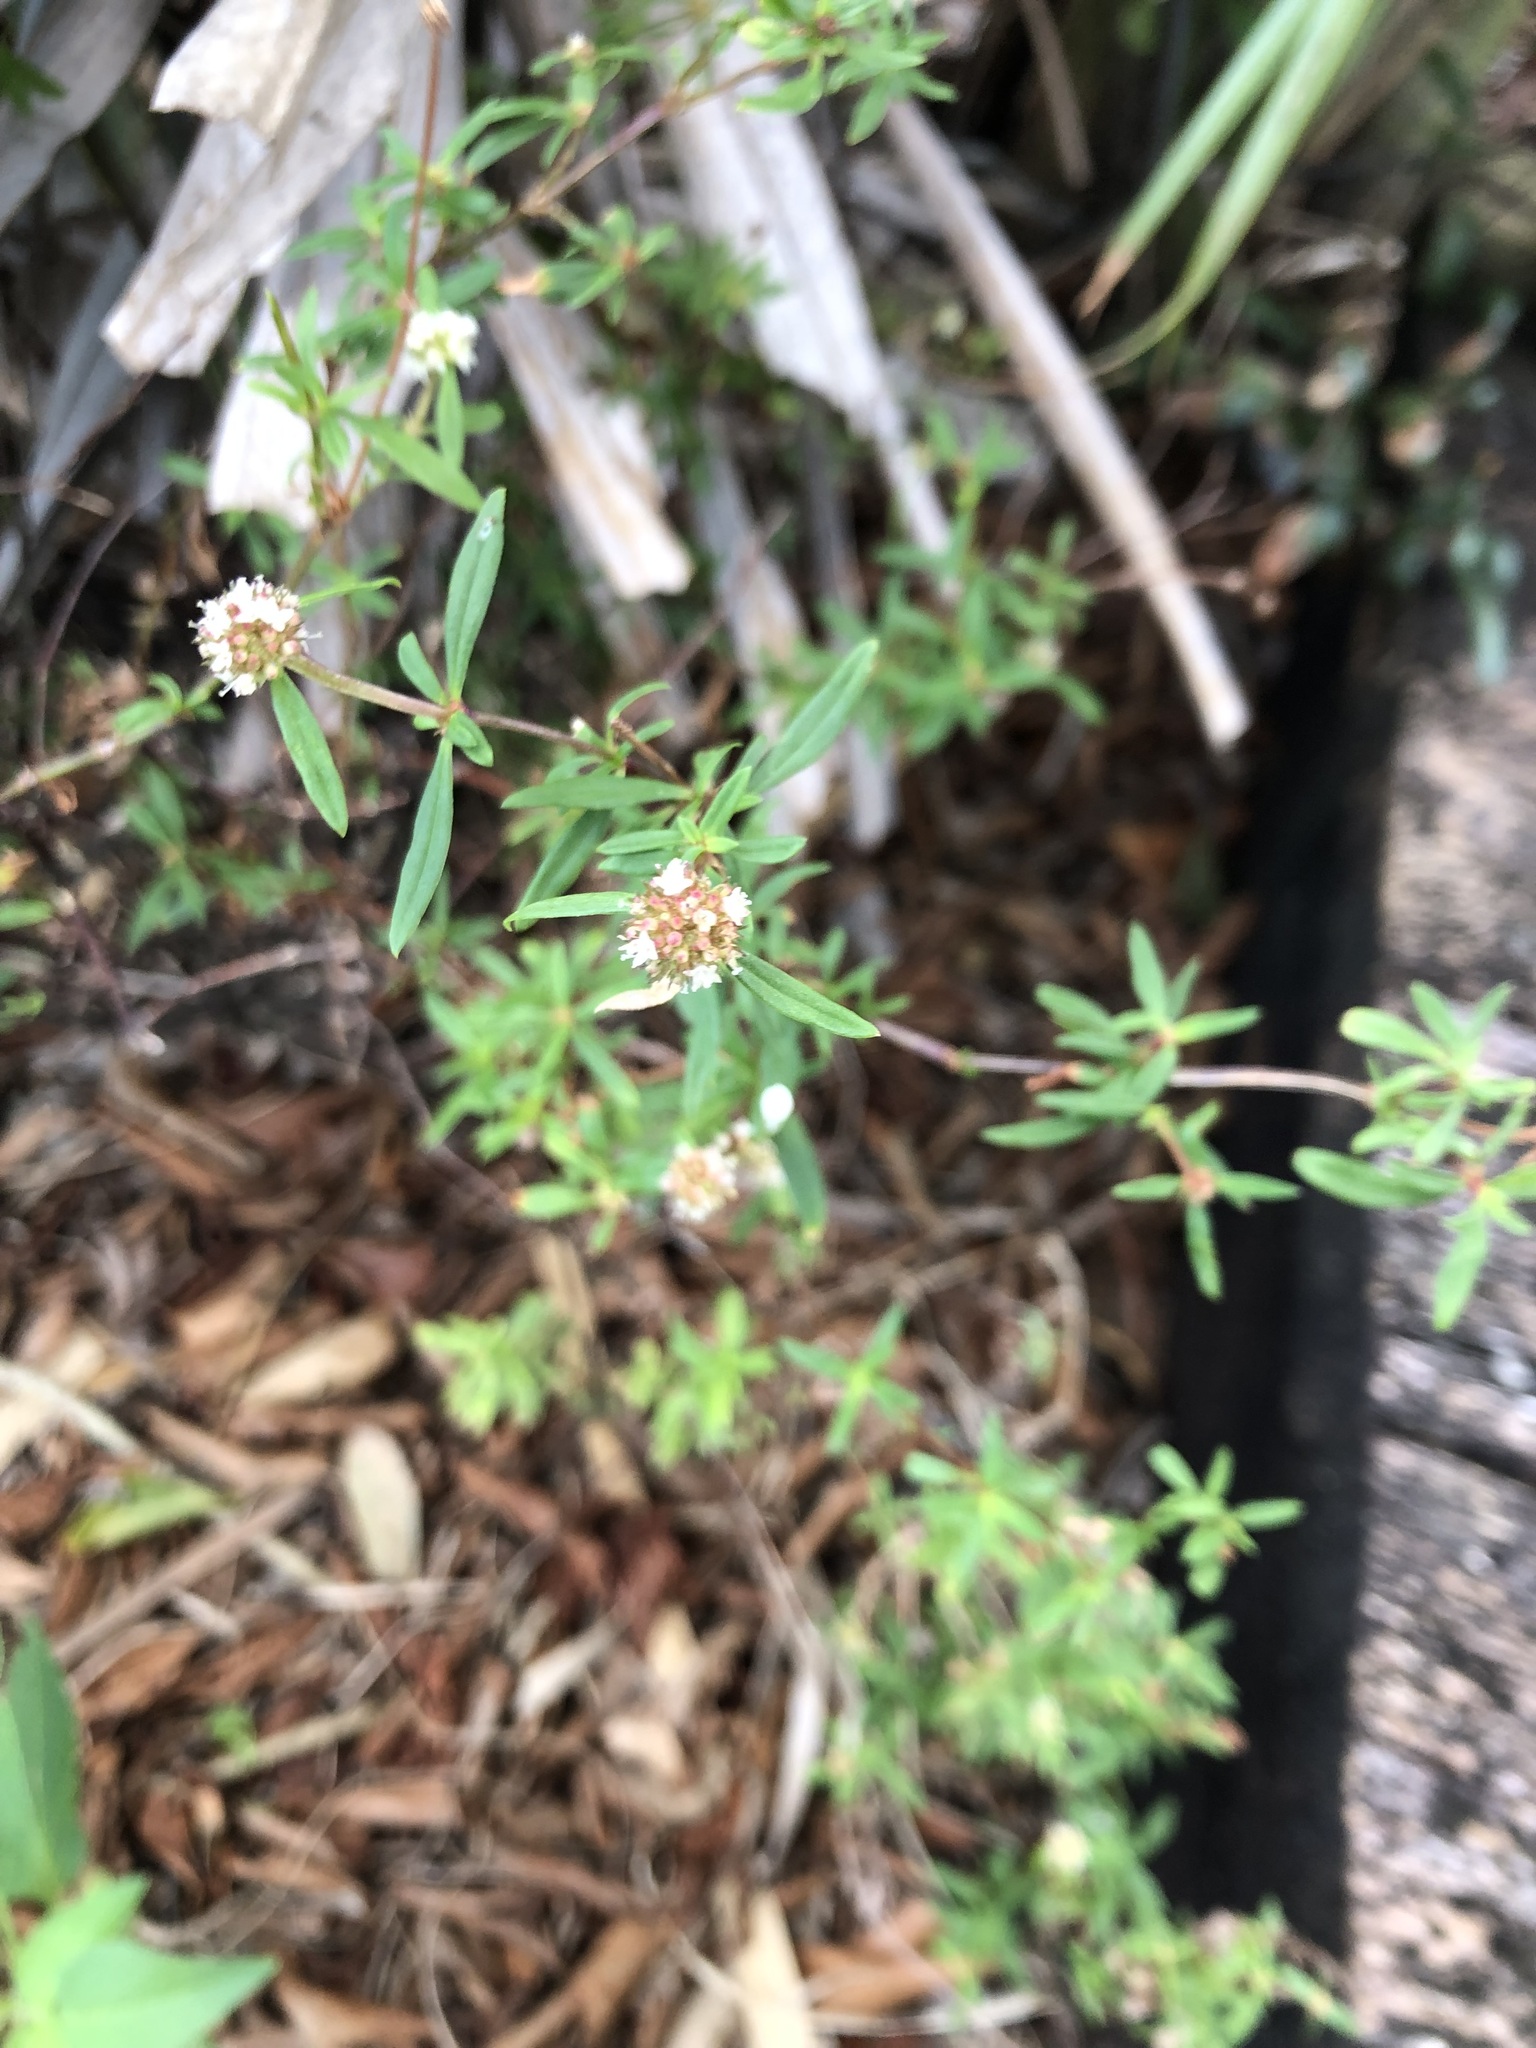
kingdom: Plantae
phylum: Tracheophyta
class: Magnoliopsida
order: Gentianales
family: Rubiaceae
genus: Spermacoce
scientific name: Spermacoce verticillata
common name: Shrubby false buttonweed
